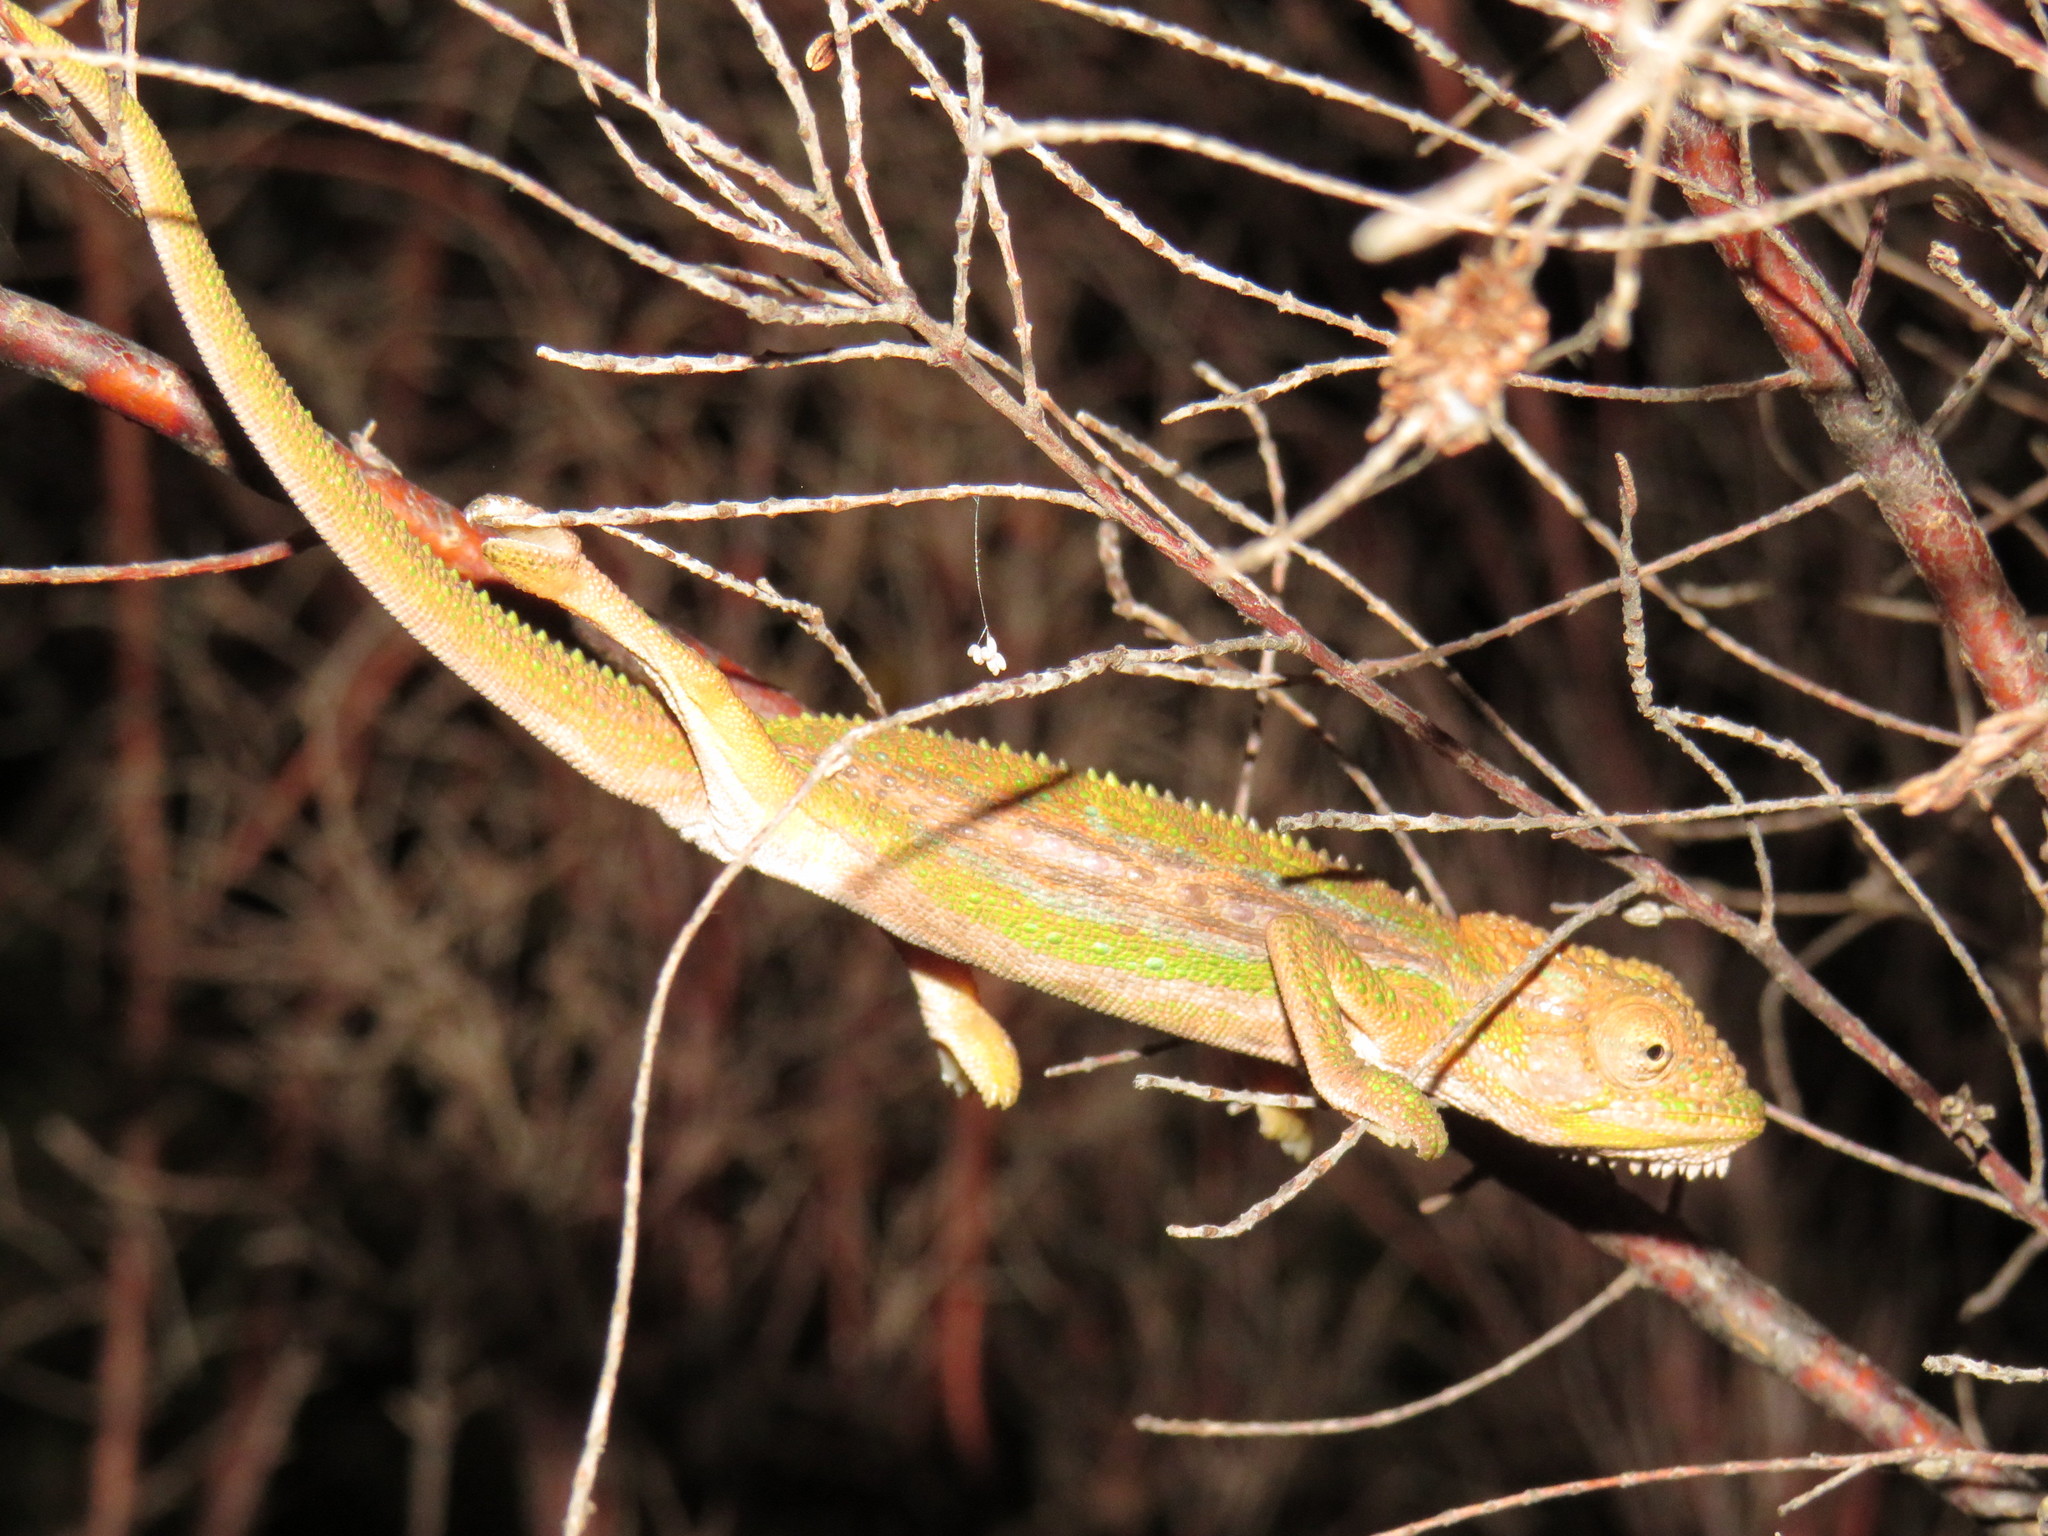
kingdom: Animalia
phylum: Chordata
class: Squamata
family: Chamaeleonidae
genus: Bradypodion
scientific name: Bradypodion pumilum
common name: Cape dwarf chameleon
